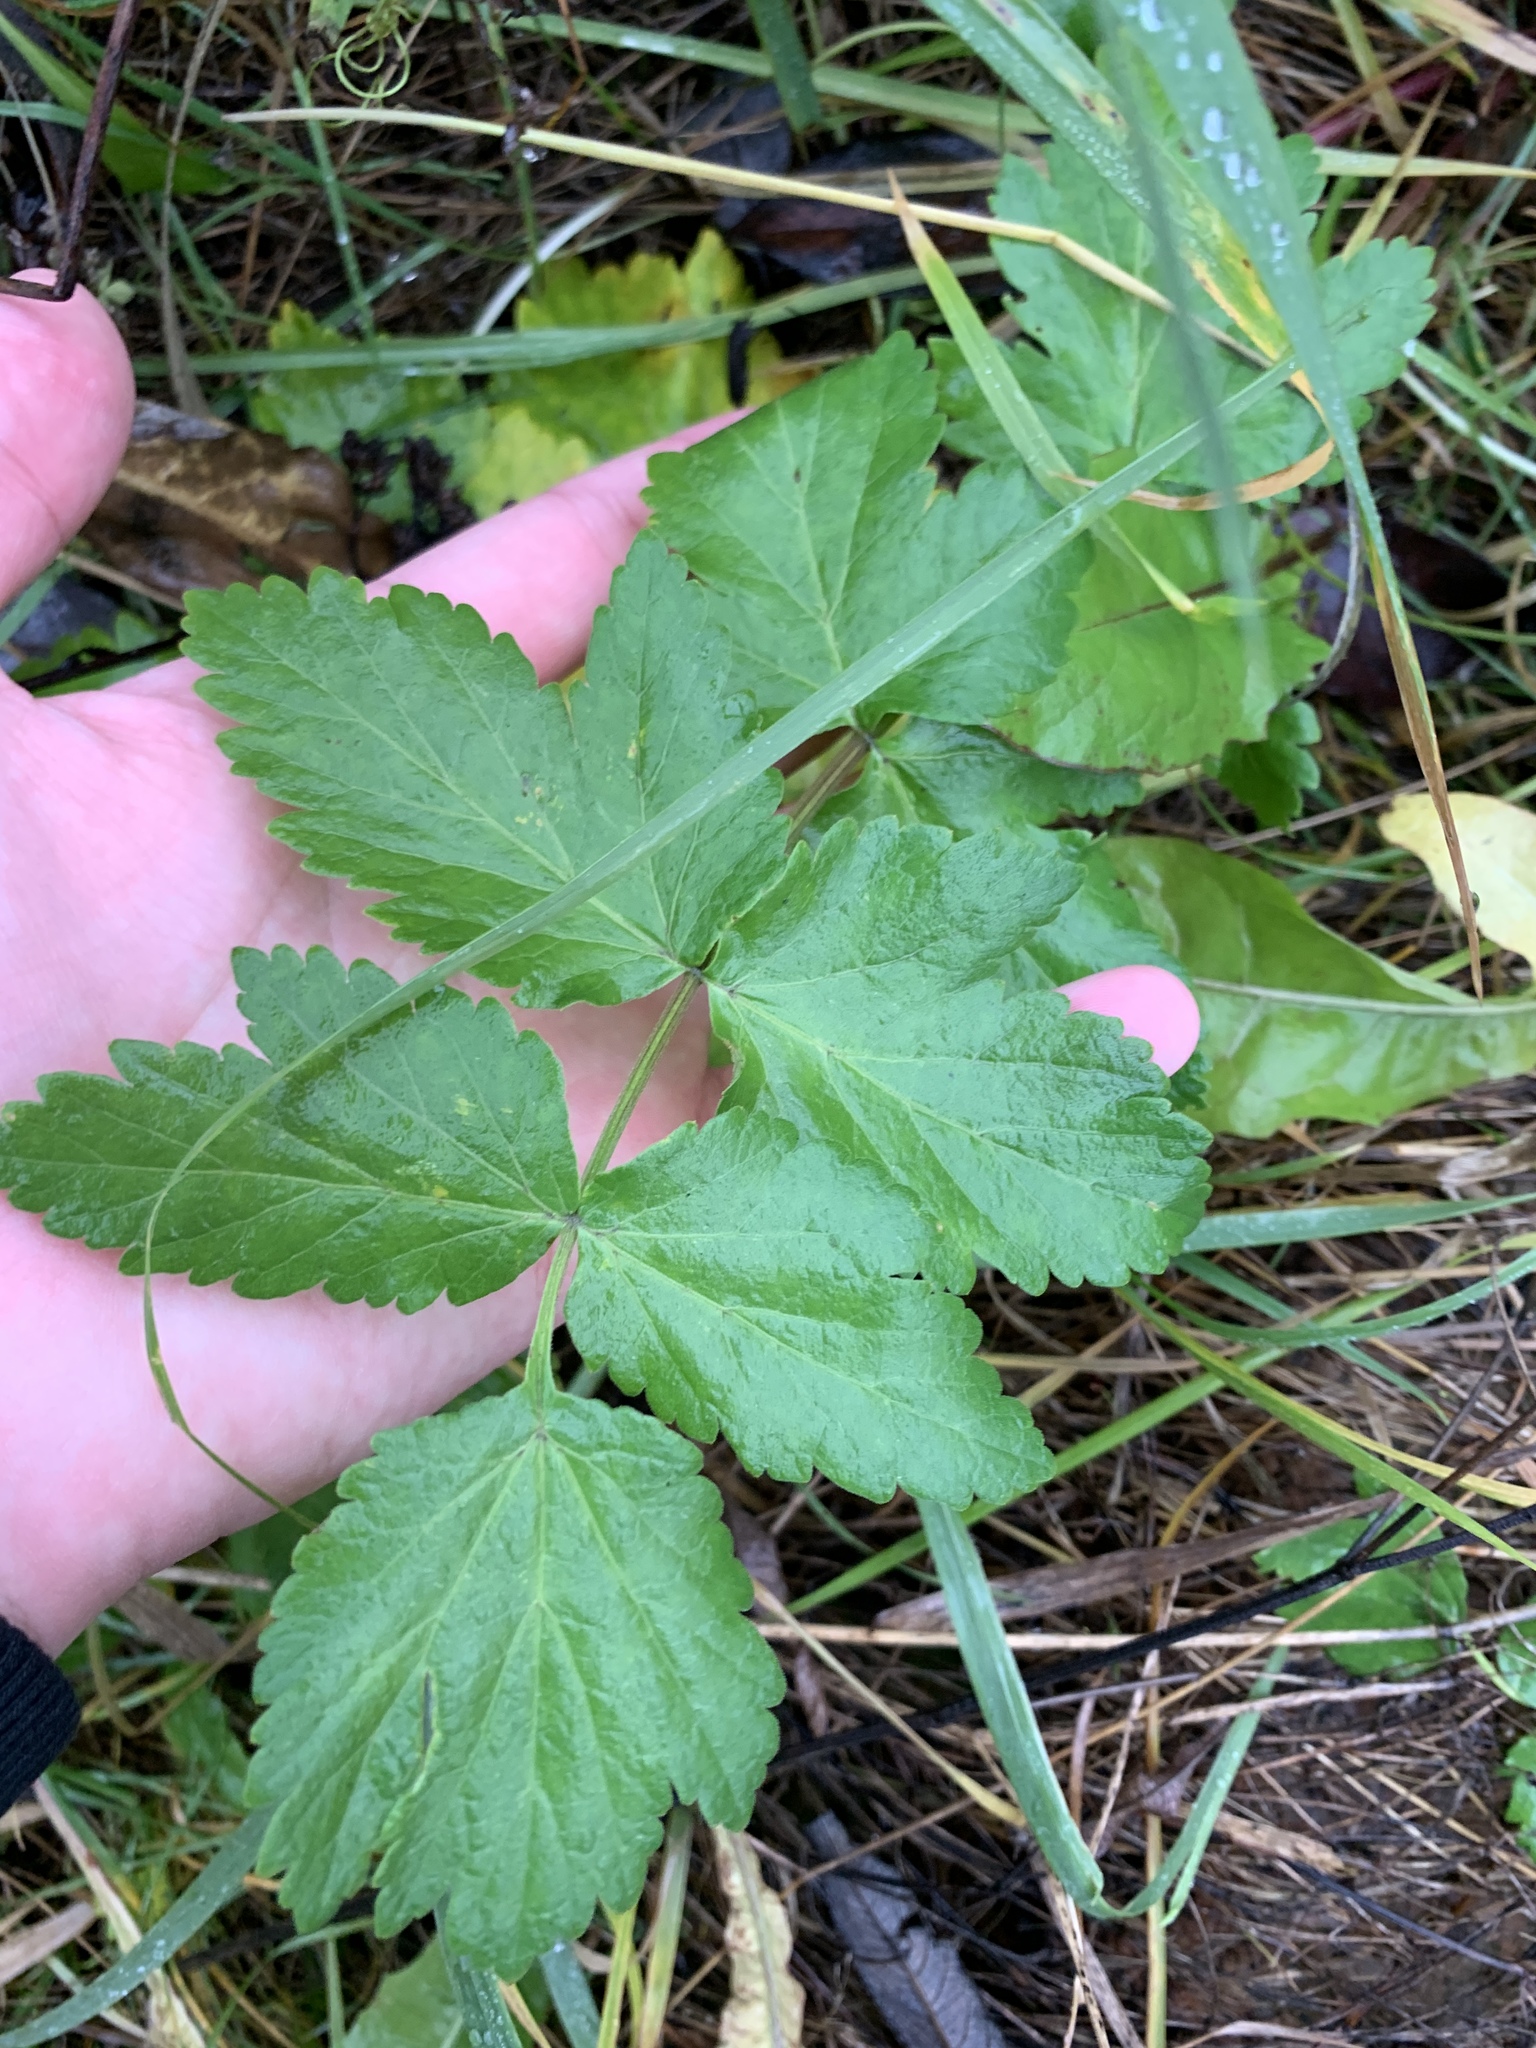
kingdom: Plantae
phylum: Tracheophyta
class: Magnoliopsida
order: Apiales
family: Apiaceae
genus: Pimpinella
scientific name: Pimpinella saxifraga
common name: Burnet-saxifrage
